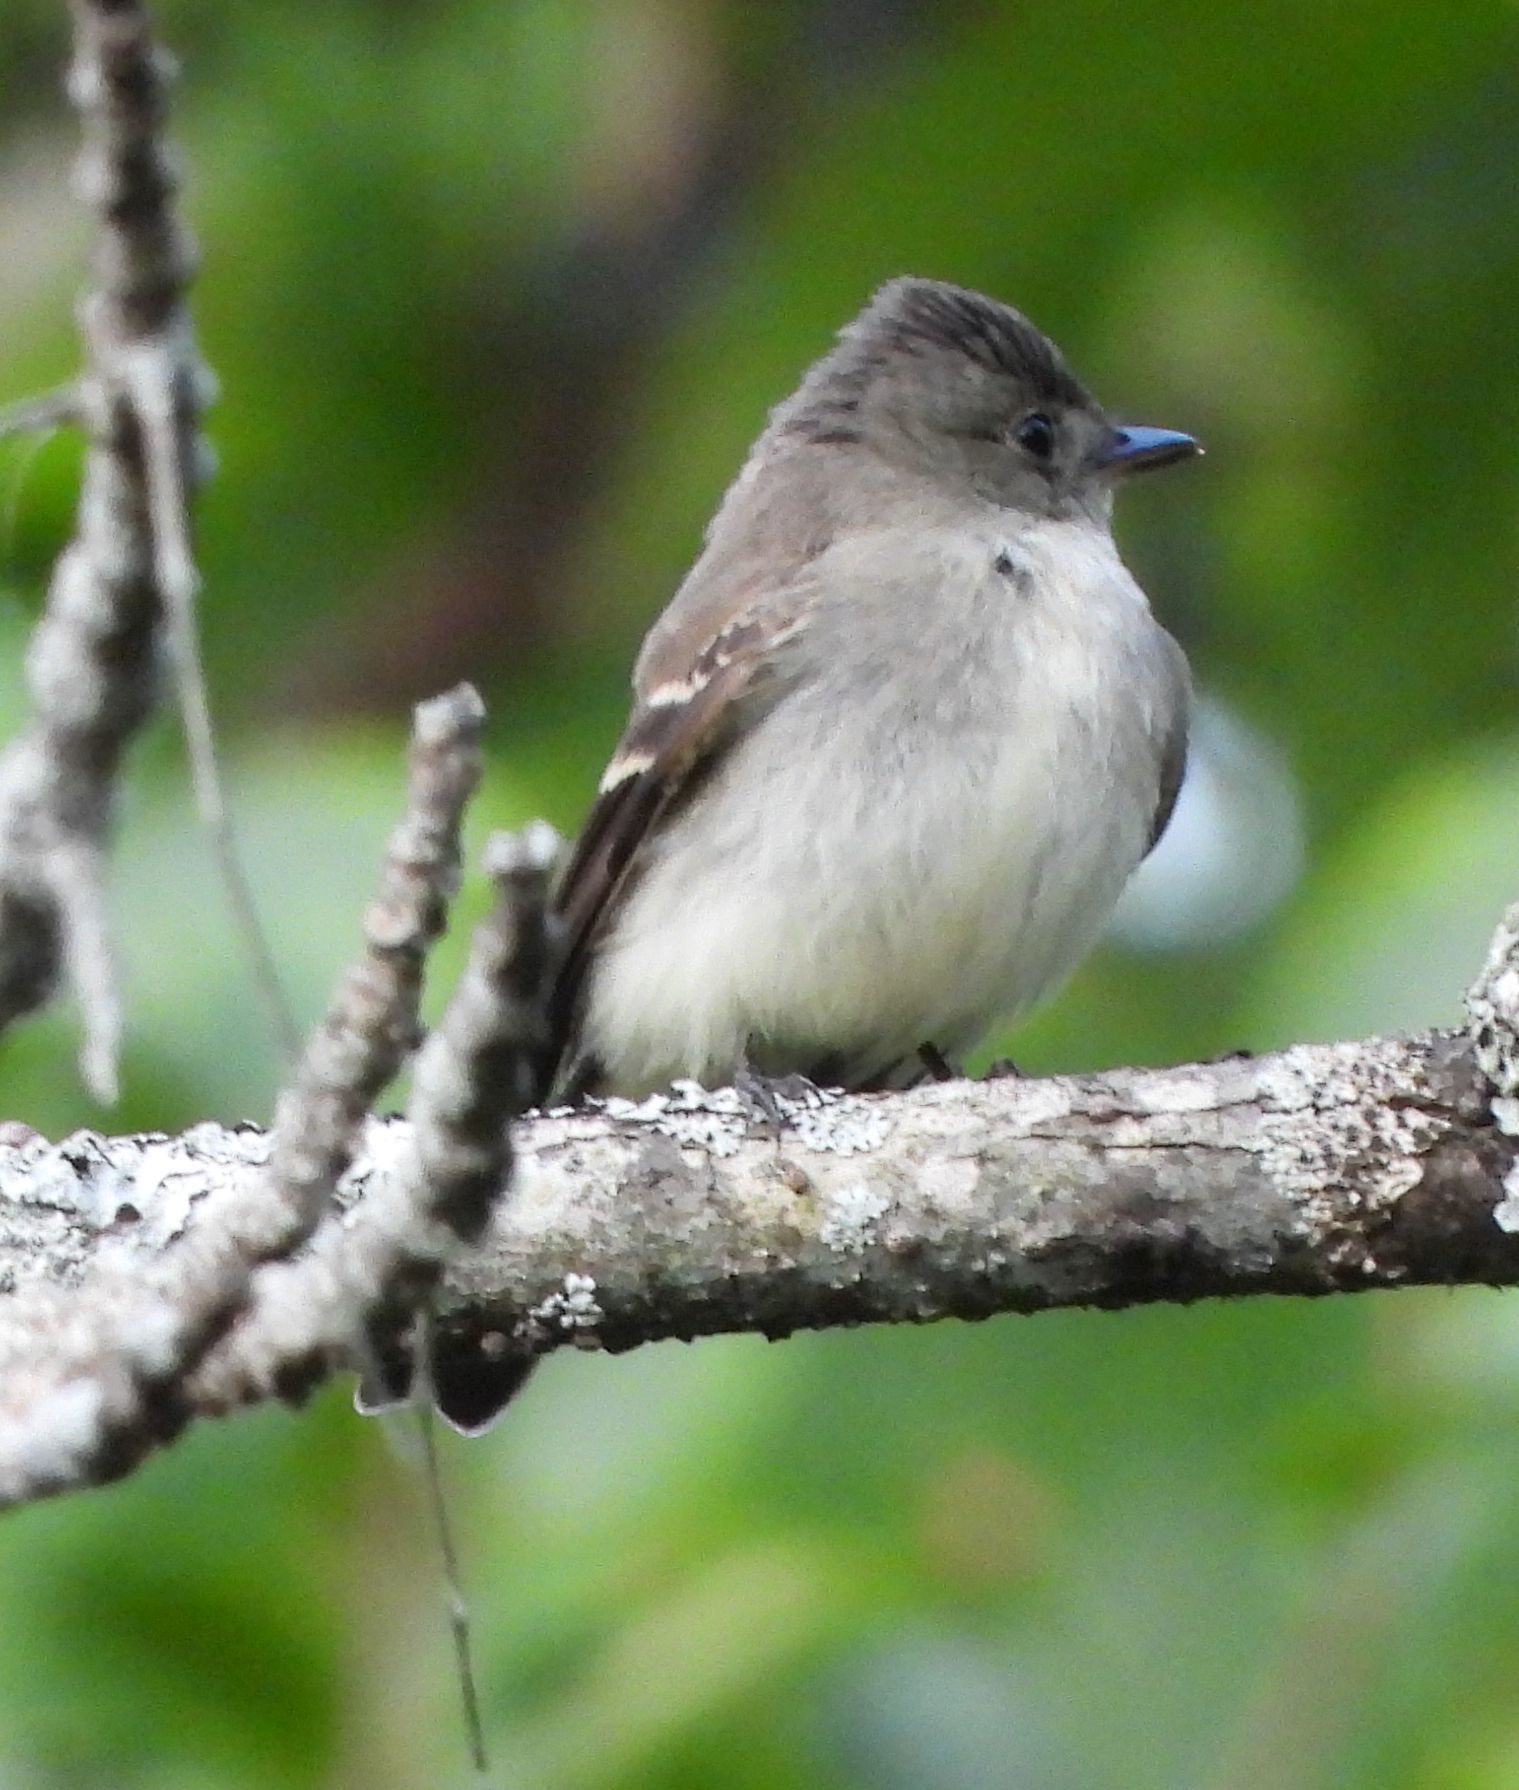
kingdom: Animalia
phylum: Chordata
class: Aves
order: Passeriformes
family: Tyrannidae
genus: Contopus
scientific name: Contopus virens
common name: Eastern wood-pewee
